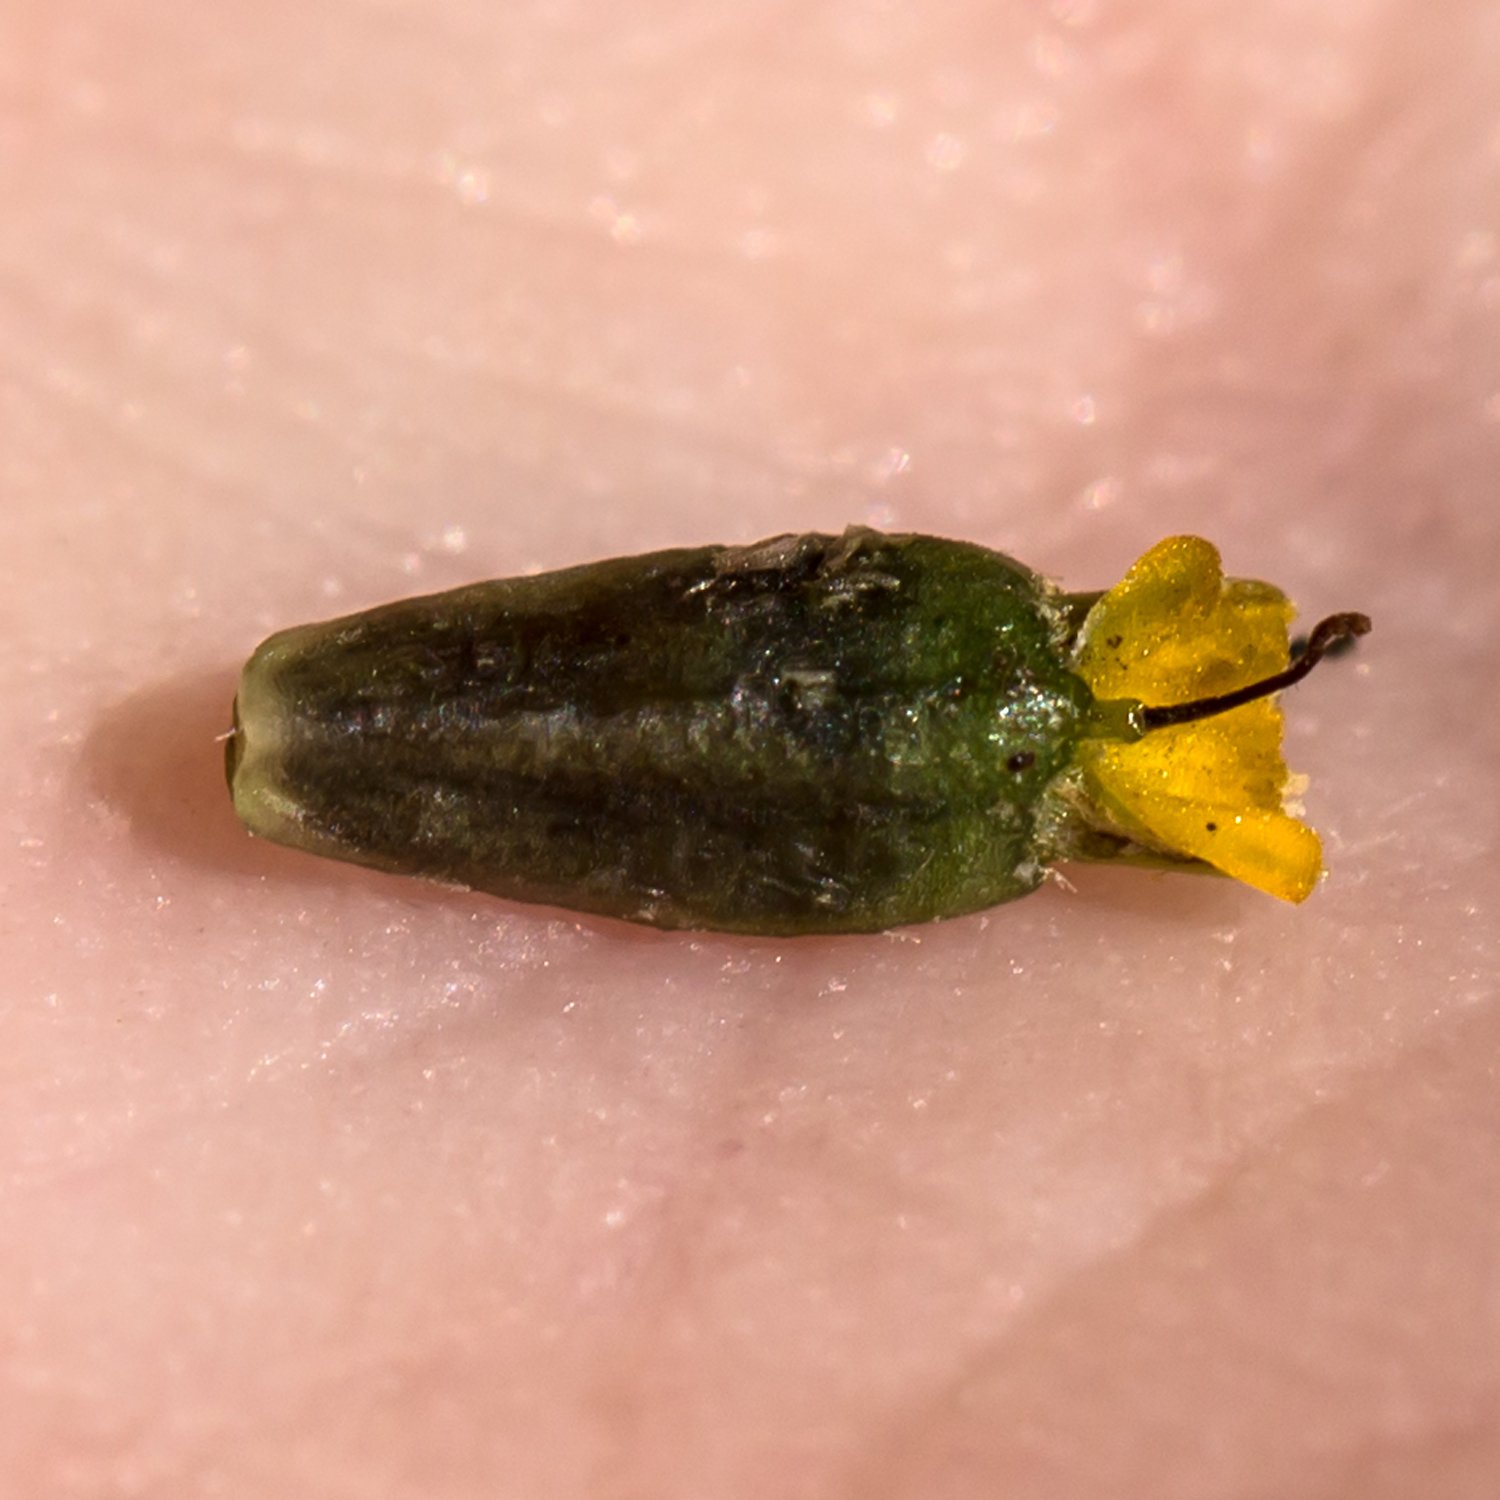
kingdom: Plantae
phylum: Tracheophyta
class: Magnoliopsida
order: Asterales
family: Asteraceae
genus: Heliopsis
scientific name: Heliopsis helianthoides
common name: False sunflower
